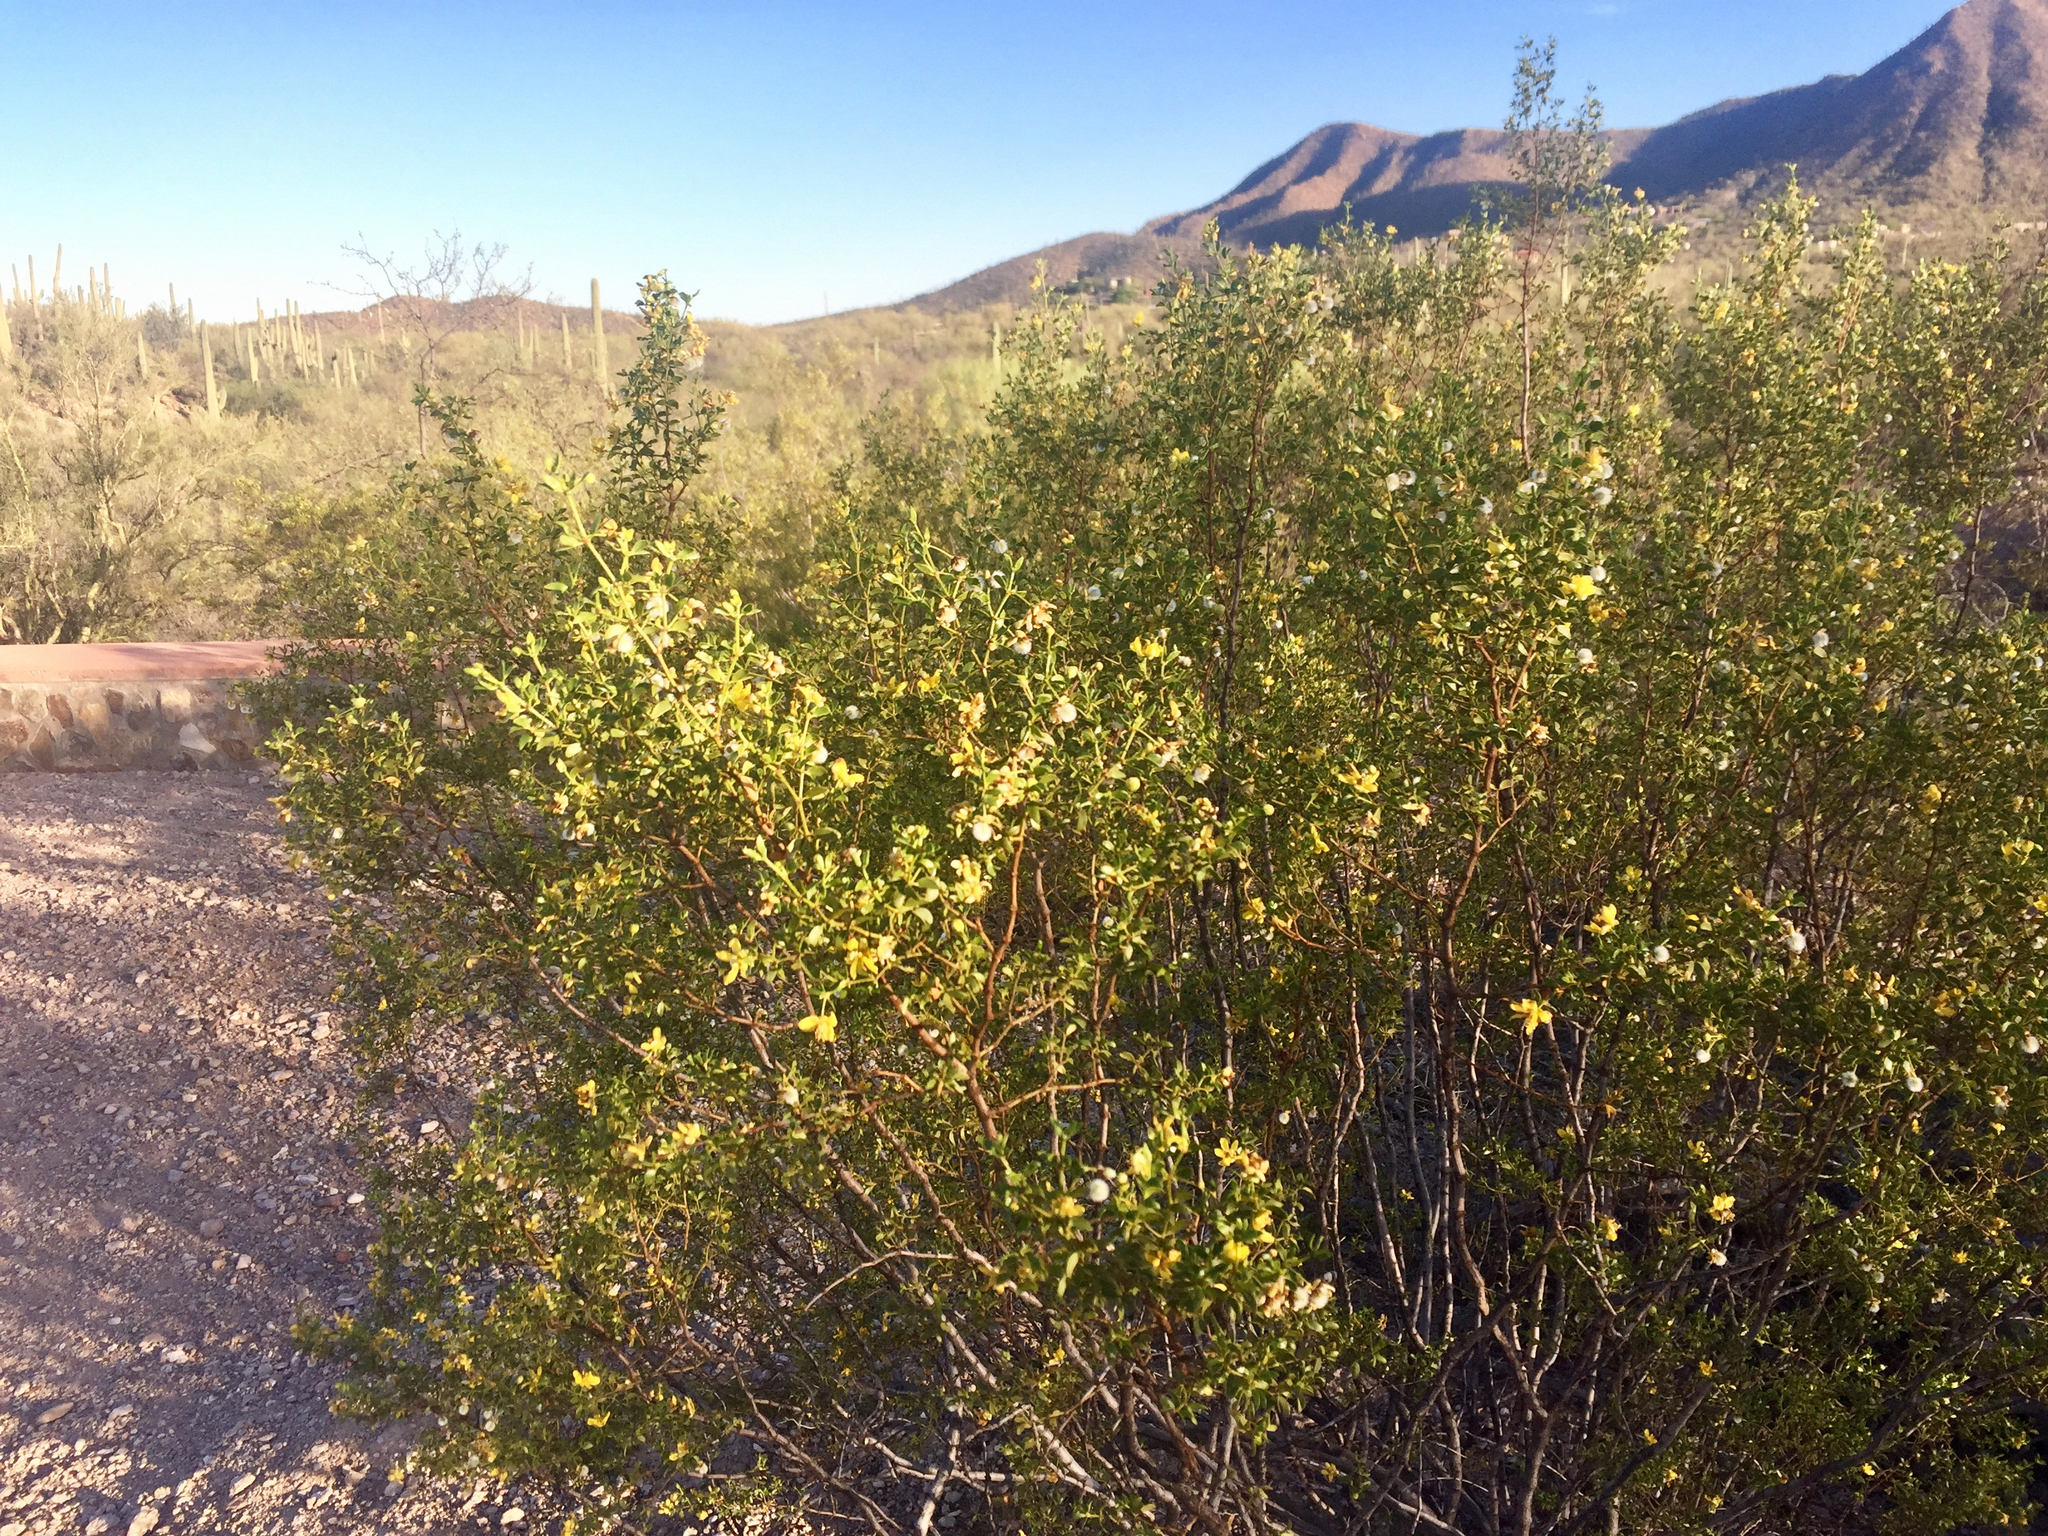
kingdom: Plantae
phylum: Tracheophyta
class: Magnoliopsida
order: Zygophyllales
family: Zygophyllaceae
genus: Larrea
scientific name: Larrea tridentata
